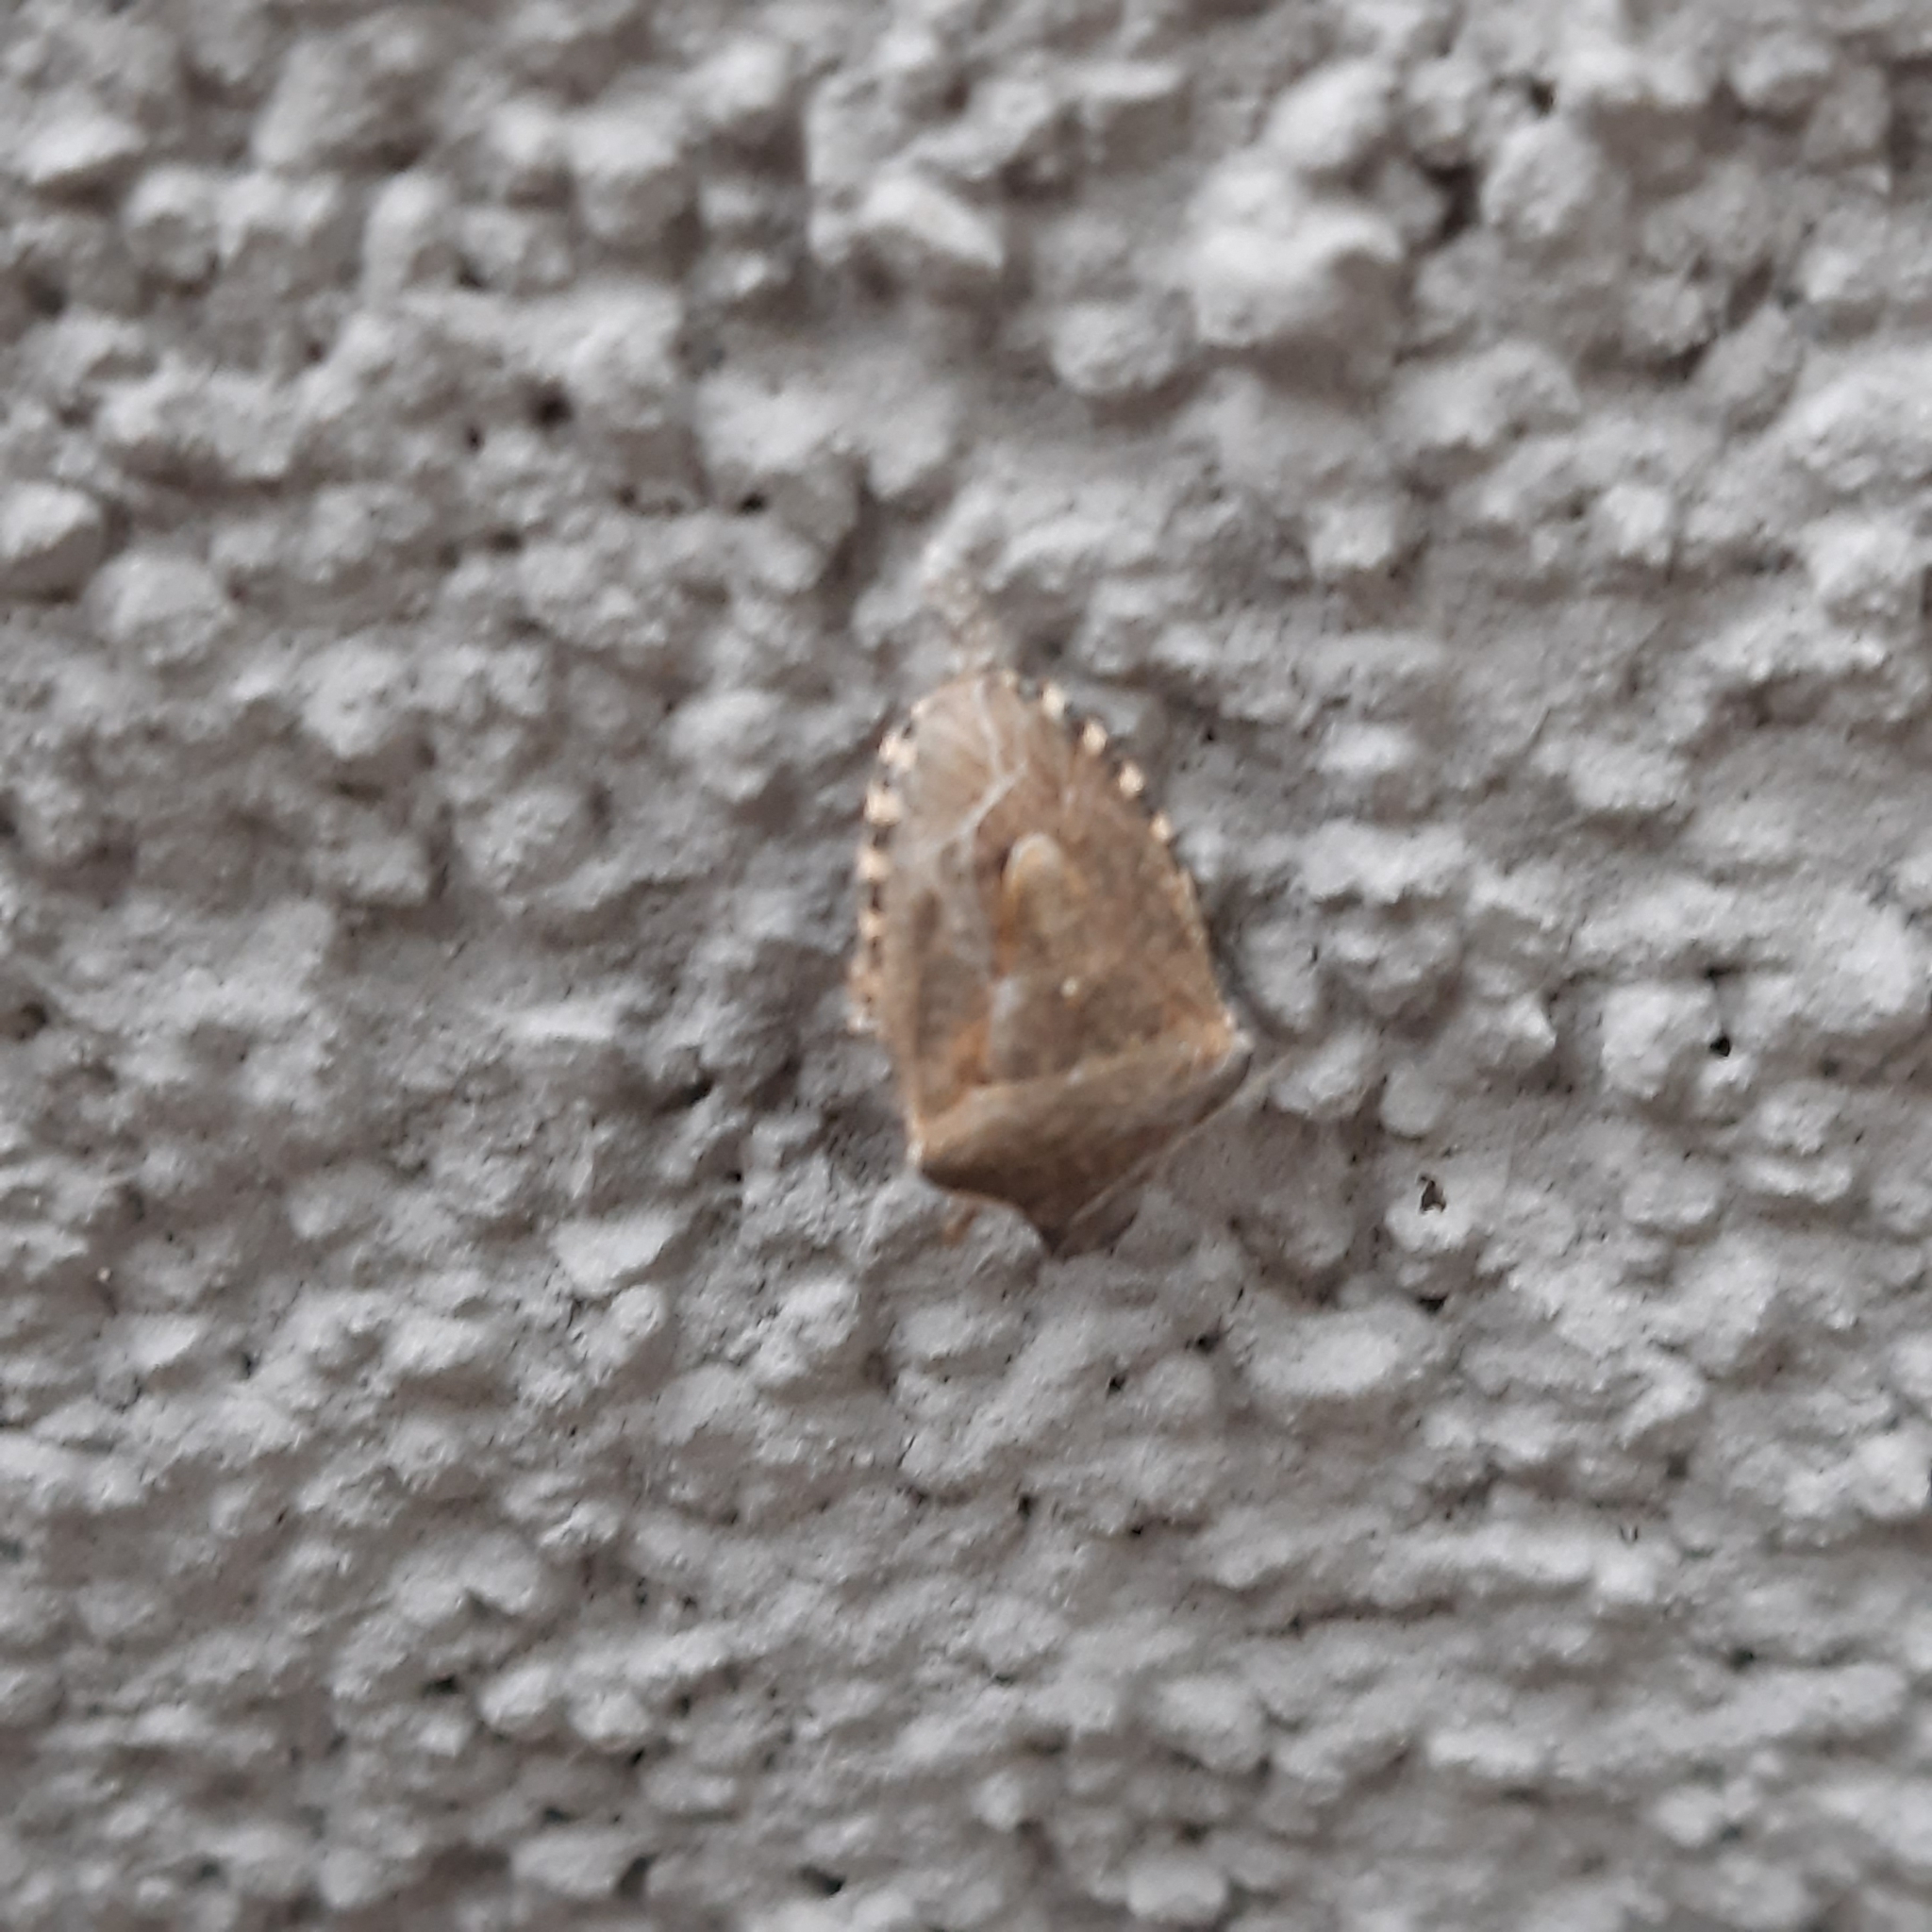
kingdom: Animalia
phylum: Arthropoda
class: Insecta
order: Hemiptera
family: Pentatomidae
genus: Holcostethus
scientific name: Holcostethus strictus
